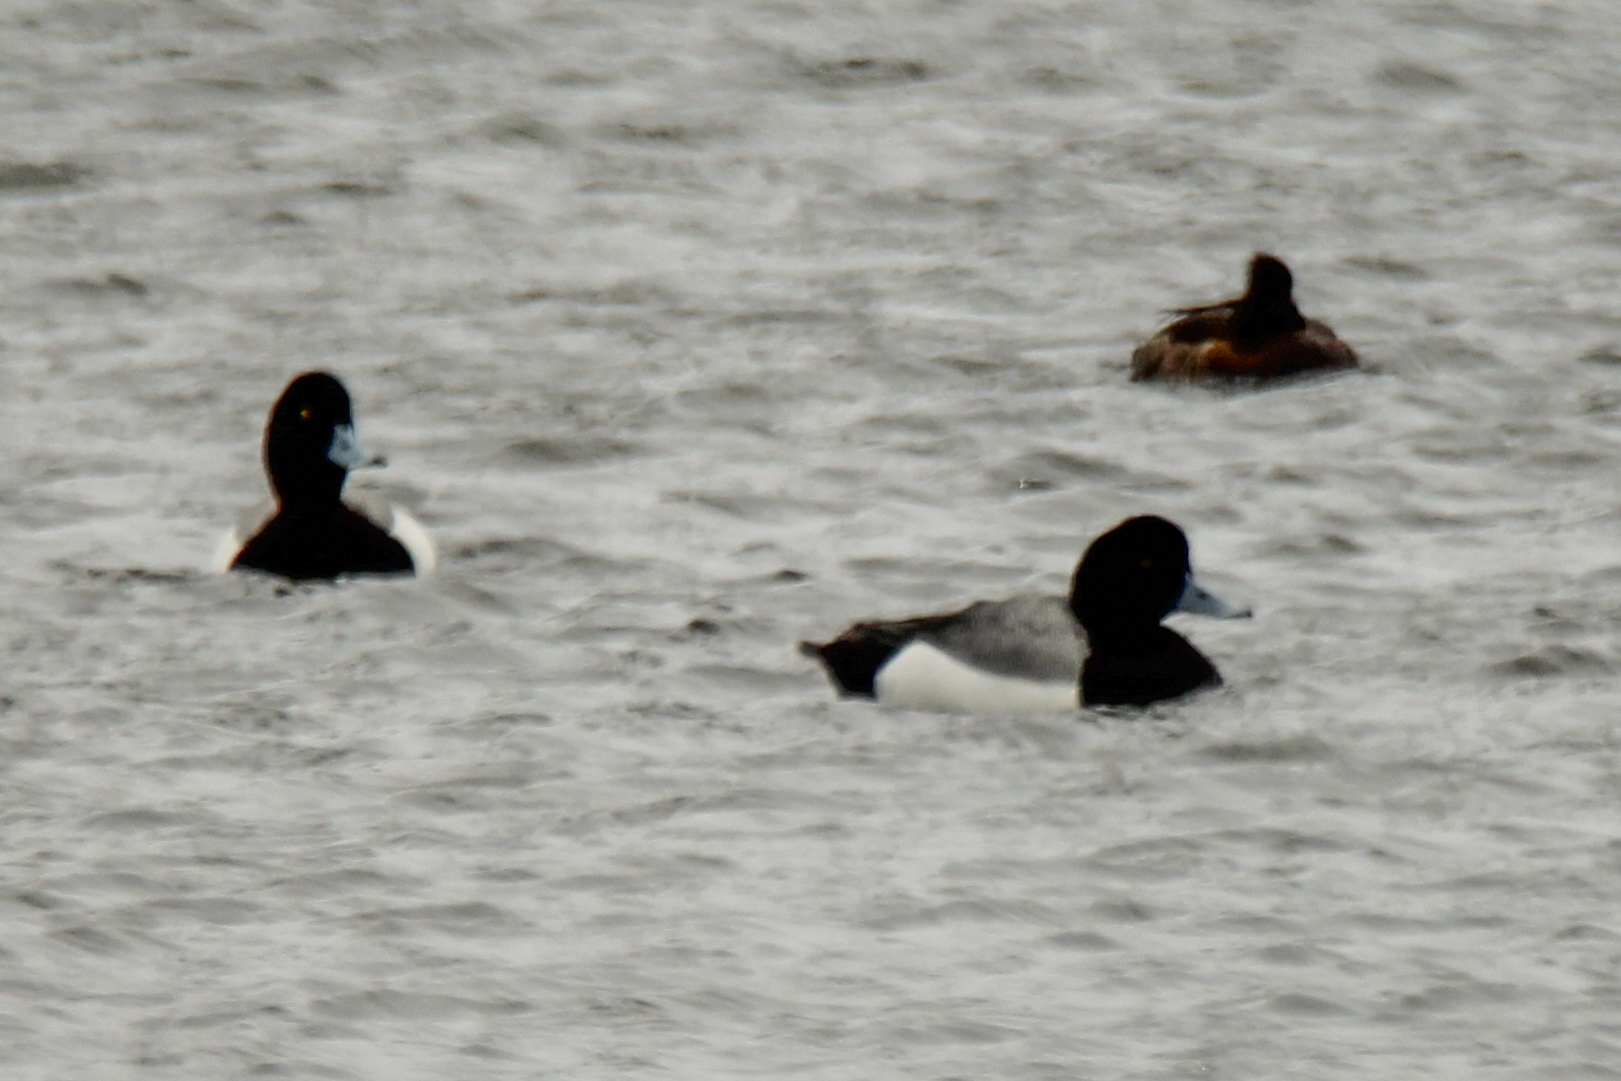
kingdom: Animalia
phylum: Chordata
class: Aves
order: Anseriformes
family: Anatidae
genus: Aythya
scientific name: Aythya marila
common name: Greater scaup
